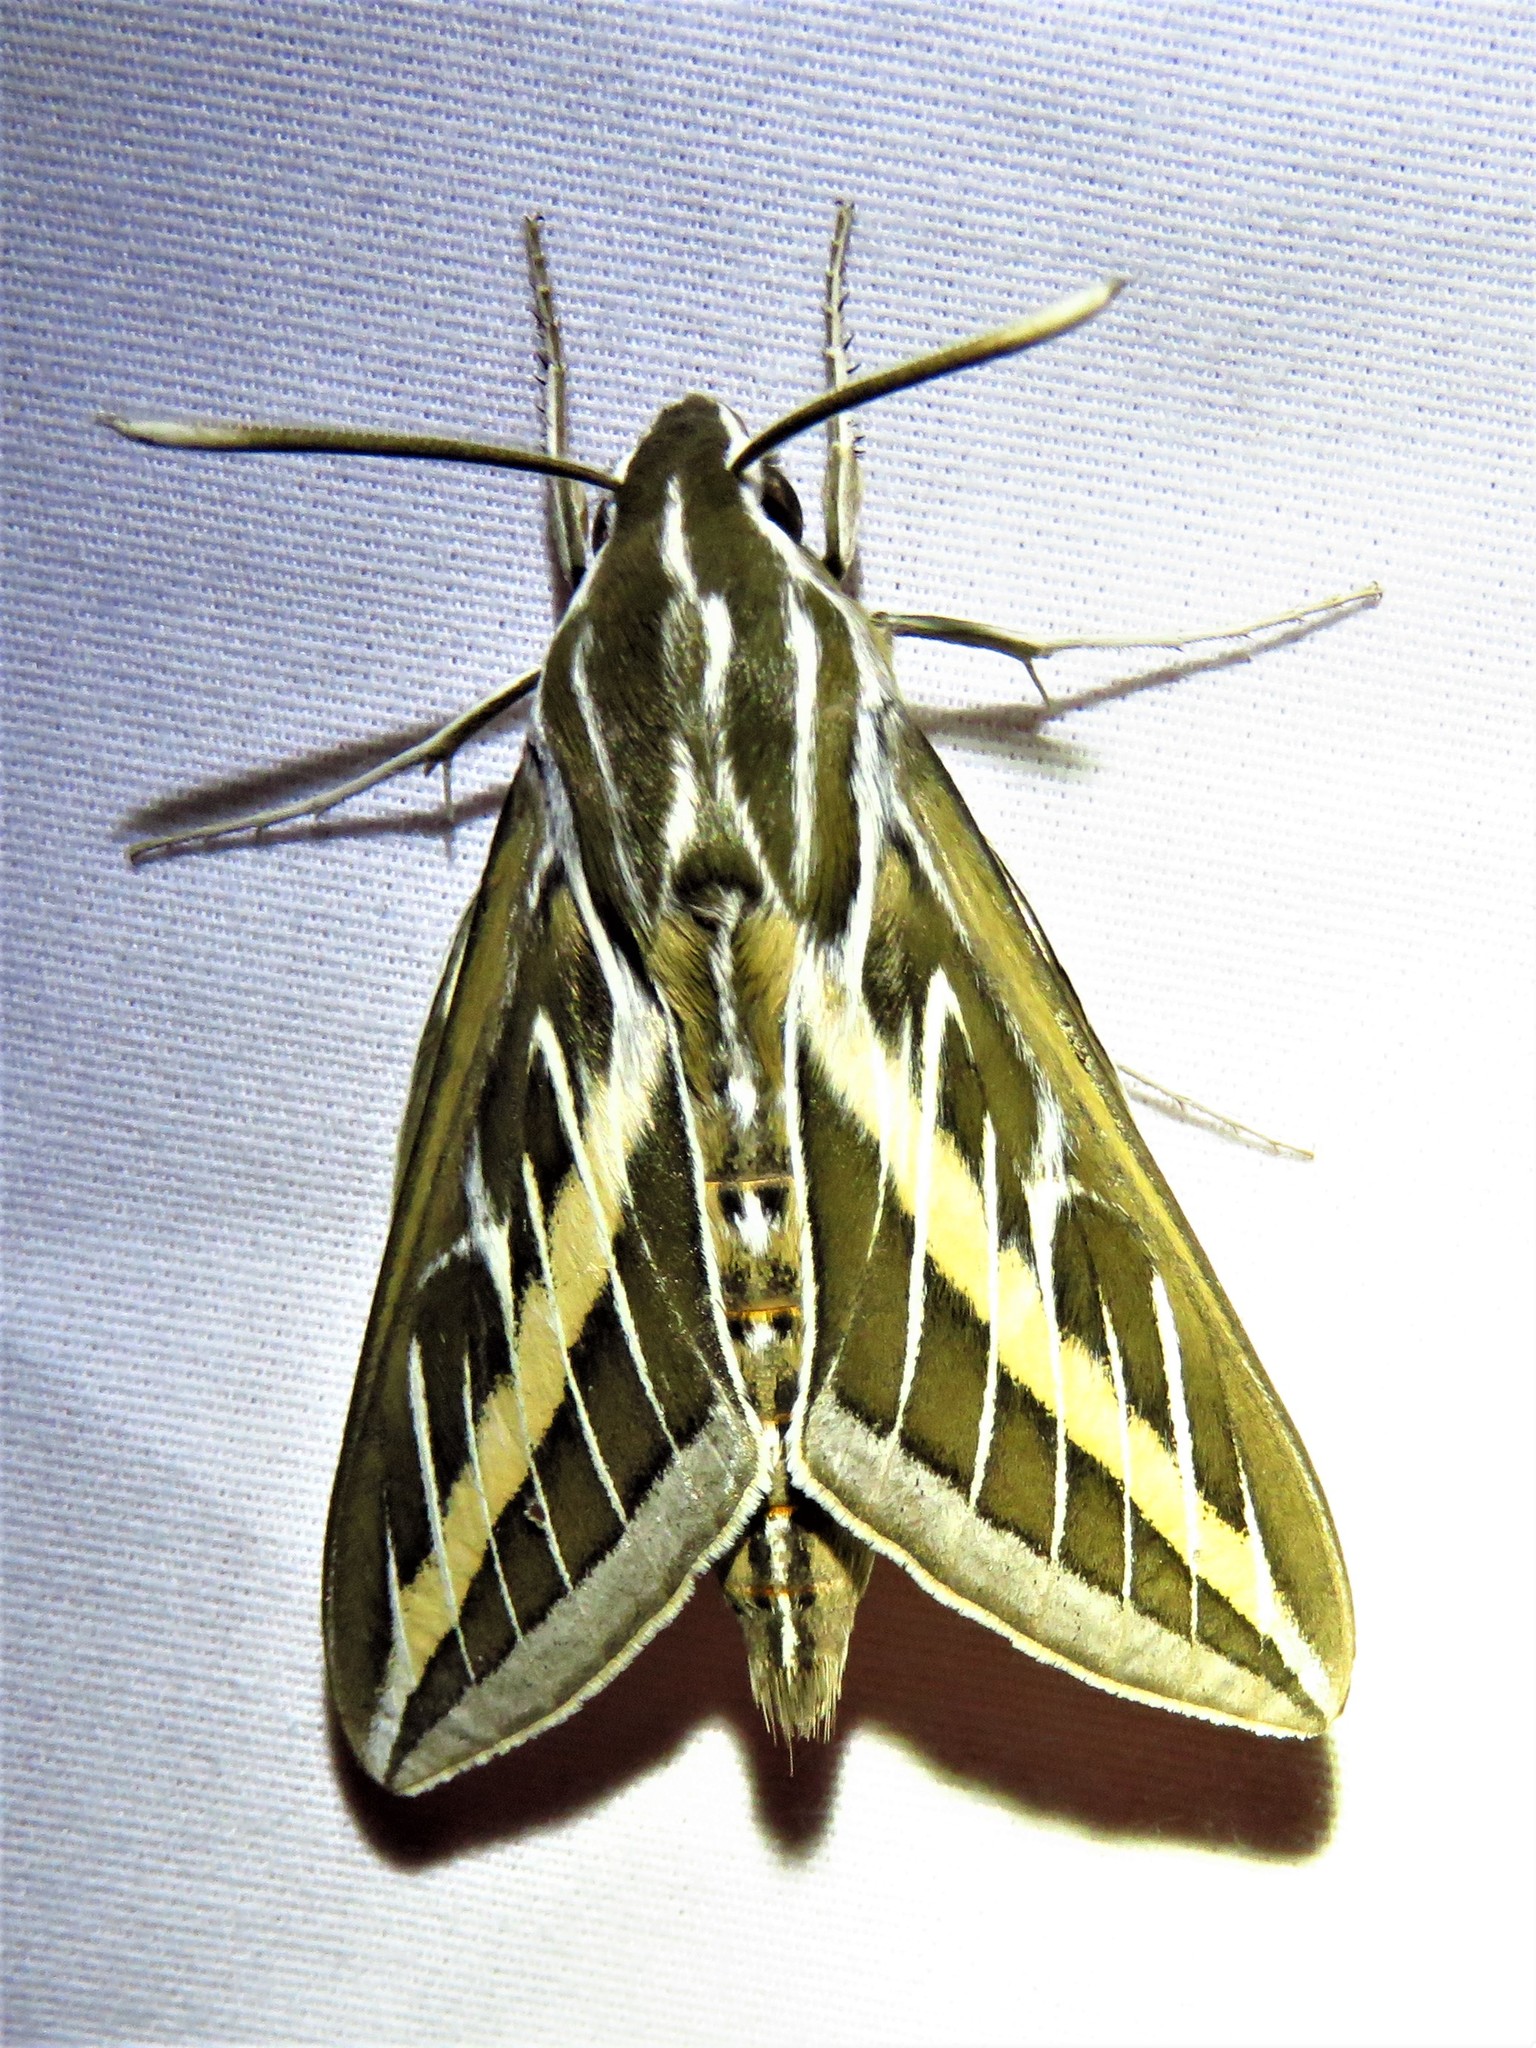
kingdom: Animalia
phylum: Arthropoda
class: Insecta
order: Lepidoptera
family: Sphingidae
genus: Hyles
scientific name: Hyles lineata
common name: White-lined sphinx
